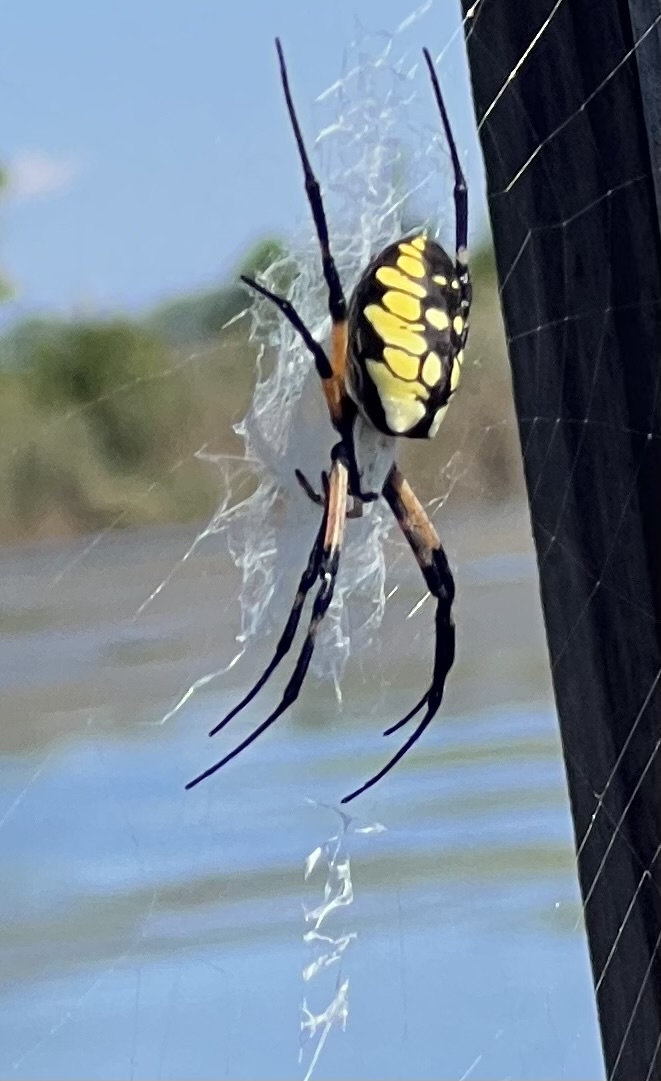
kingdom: Animalia
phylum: Arthropoda
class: Arachnida
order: Araneae
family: Araneidae
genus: Argiope
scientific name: Argiope aurantia
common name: Orb weavers
